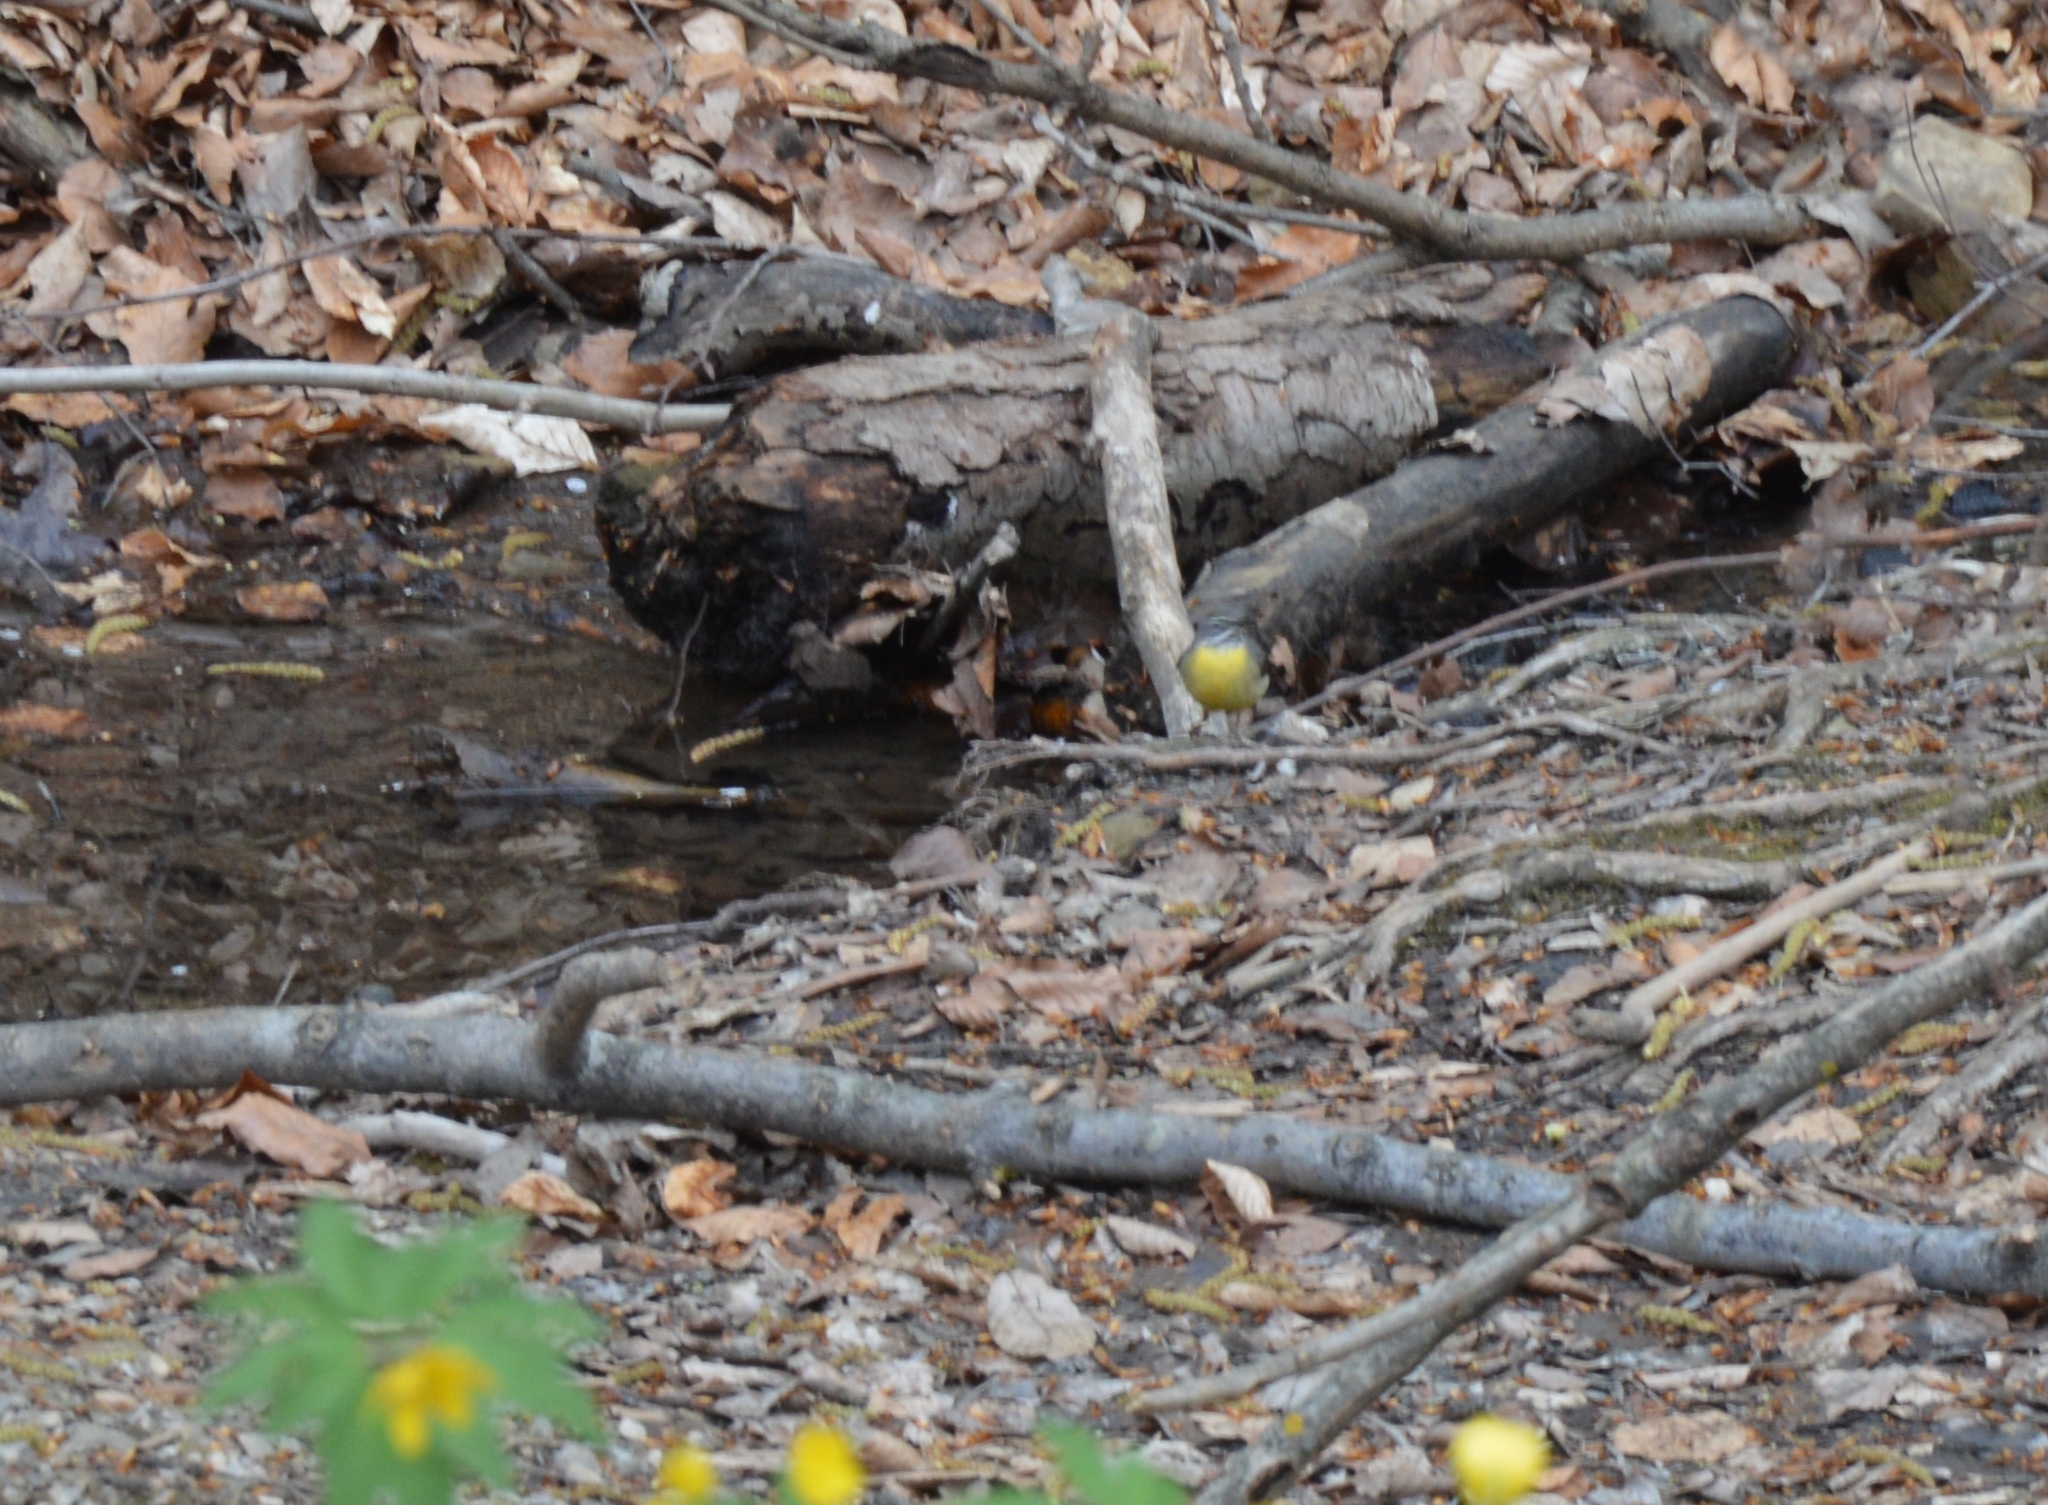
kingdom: Animalia
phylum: Chordata
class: Aves
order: Passeriformes
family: Motacillidae
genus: Motacilla
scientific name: Motacilla cinerea
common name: Grey wagtail
